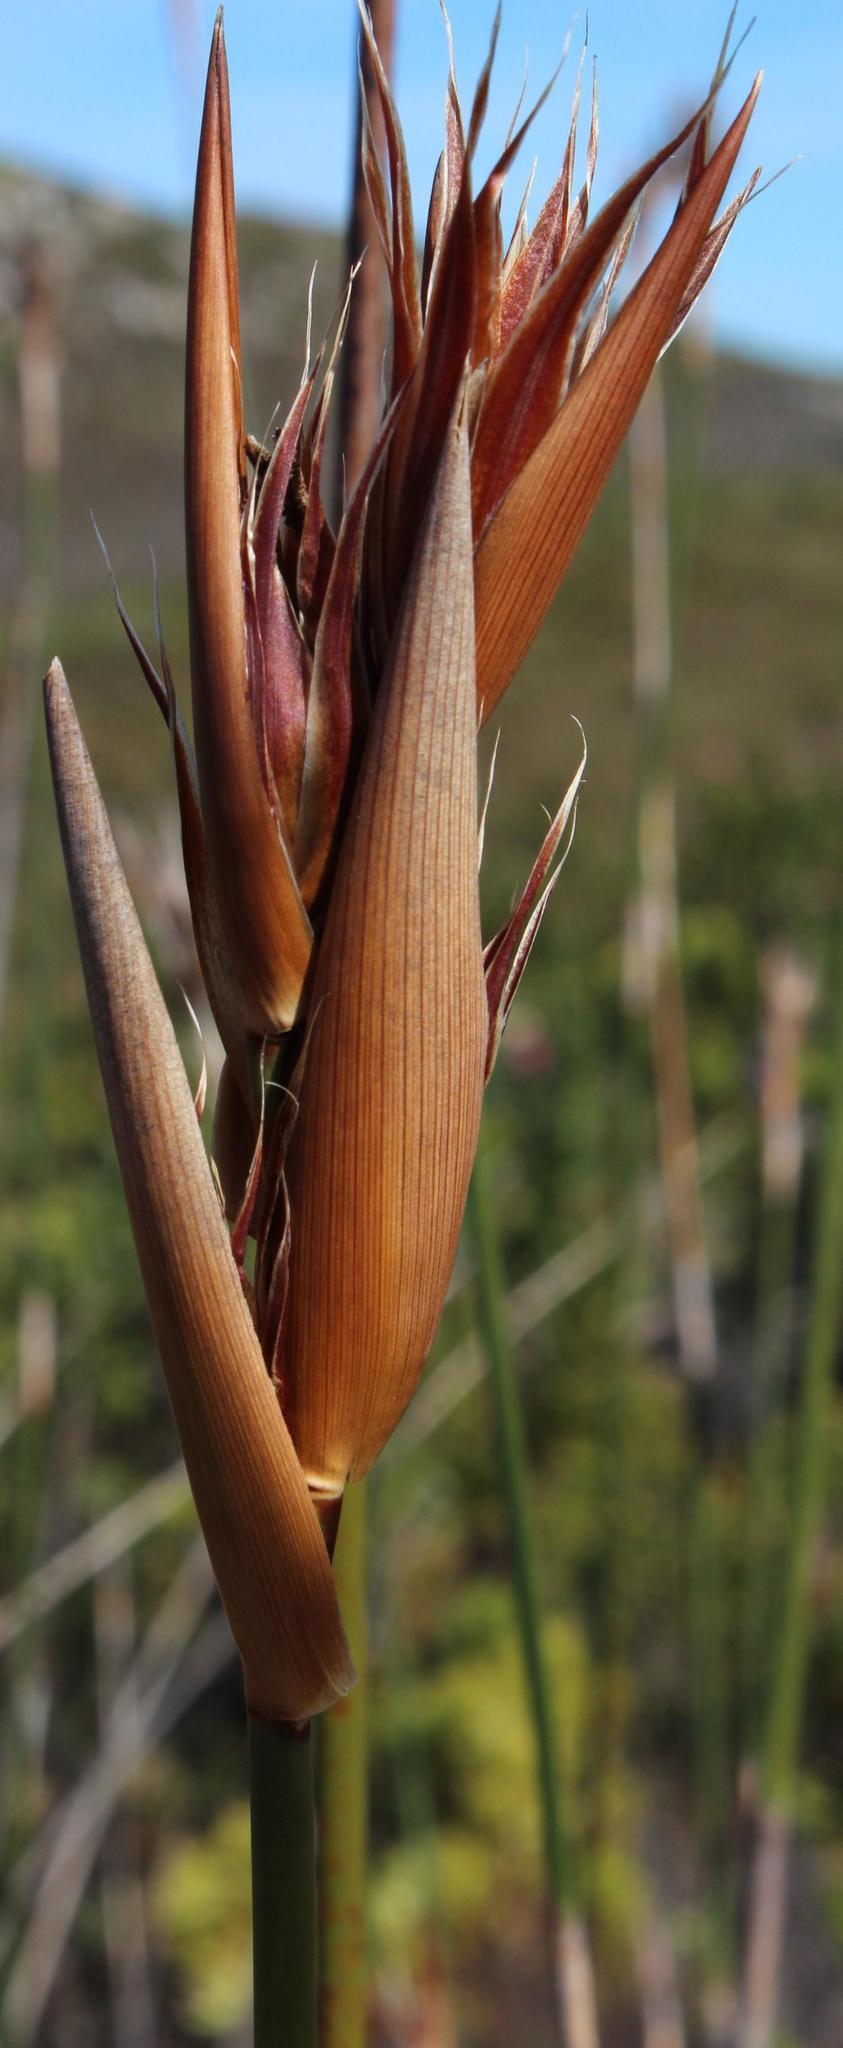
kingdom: Plantae
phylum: Tracheophyta
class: Liliopsida
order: Poales
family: Restionaceae
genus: Ceratocaryum
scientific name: Ceratocaryum argenteum
